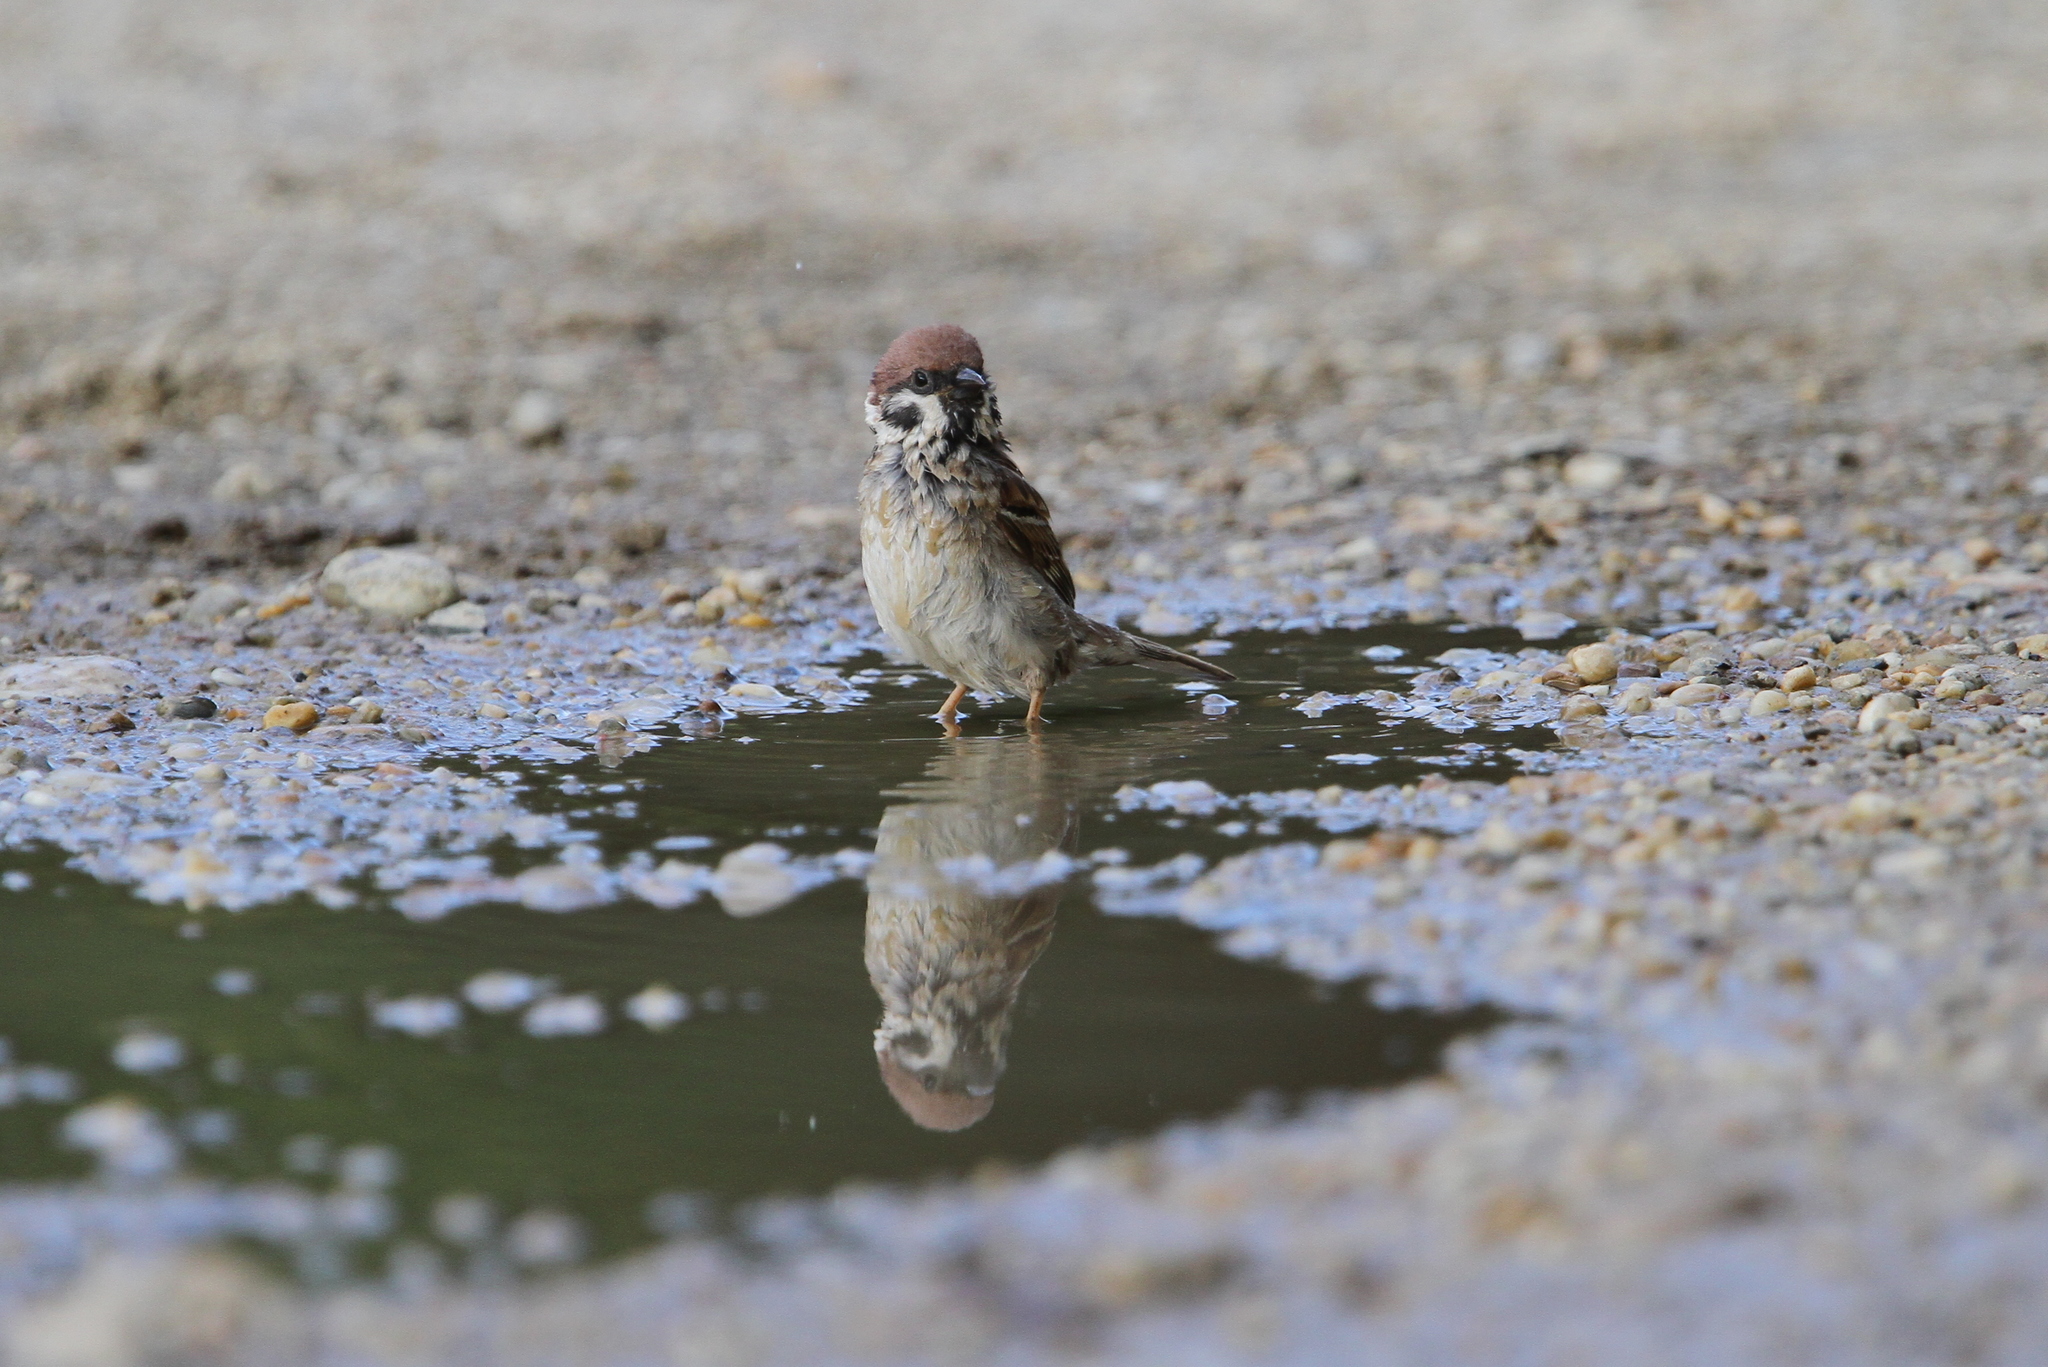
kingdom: Animalia
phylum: Chordata
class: Aves
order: Passeriformes
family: Passeridae
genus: Passer
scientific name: Passer montanus
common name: Eurasian tree sparrow
